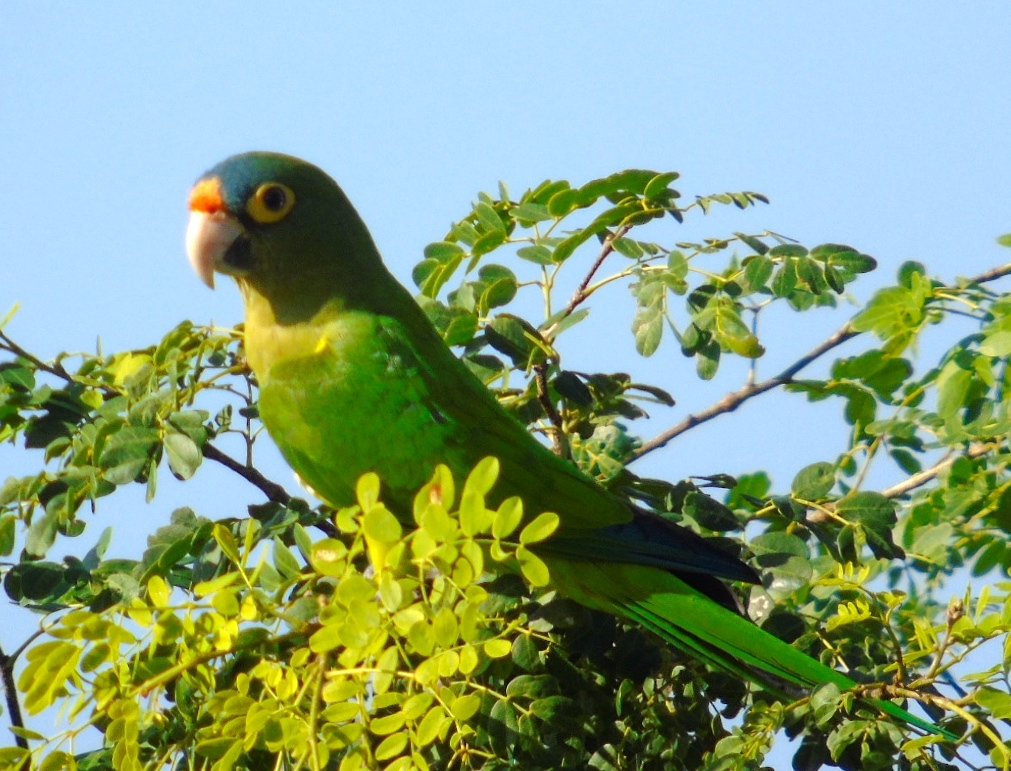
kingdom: Animalia
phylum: Chordata
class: Aves
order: Psittaciformes
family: Psittacidae
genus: Aratinga
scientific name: Aratinga canicularis
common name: Orange-fronted parakeet
